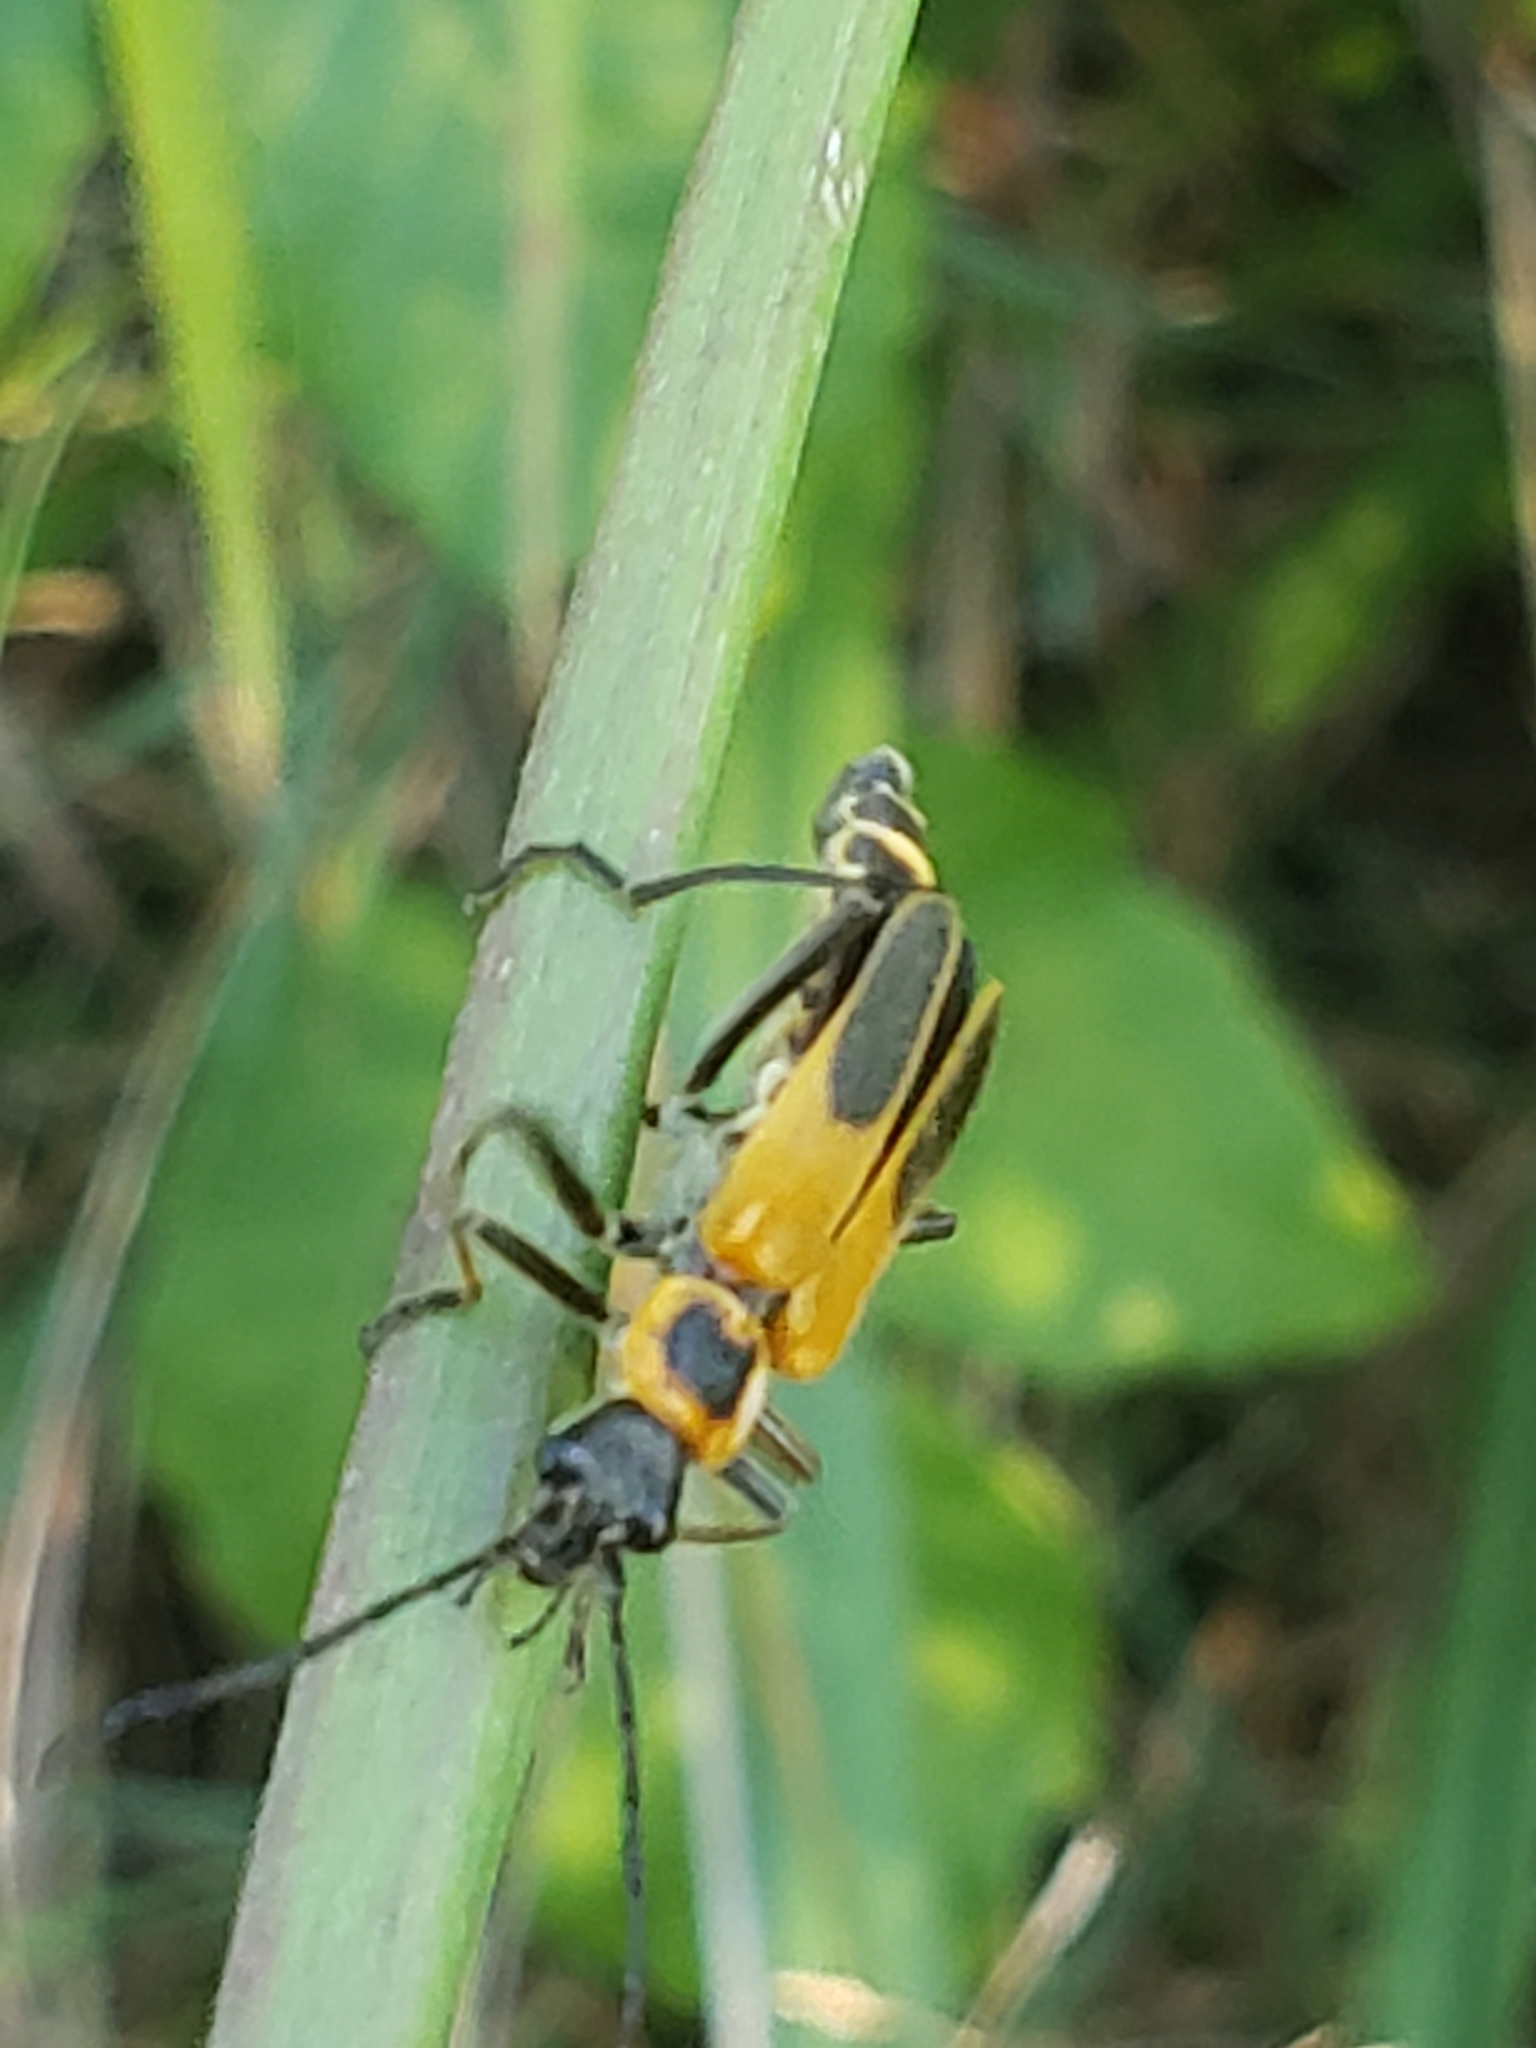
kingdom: Animalia
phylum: Arthropoda
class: Insecta
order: Coleoptera
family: Cantharidae
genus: Chauliognathus
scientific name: Chauliognathus pensylvanicus
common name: Goldenrod soldier beetle
